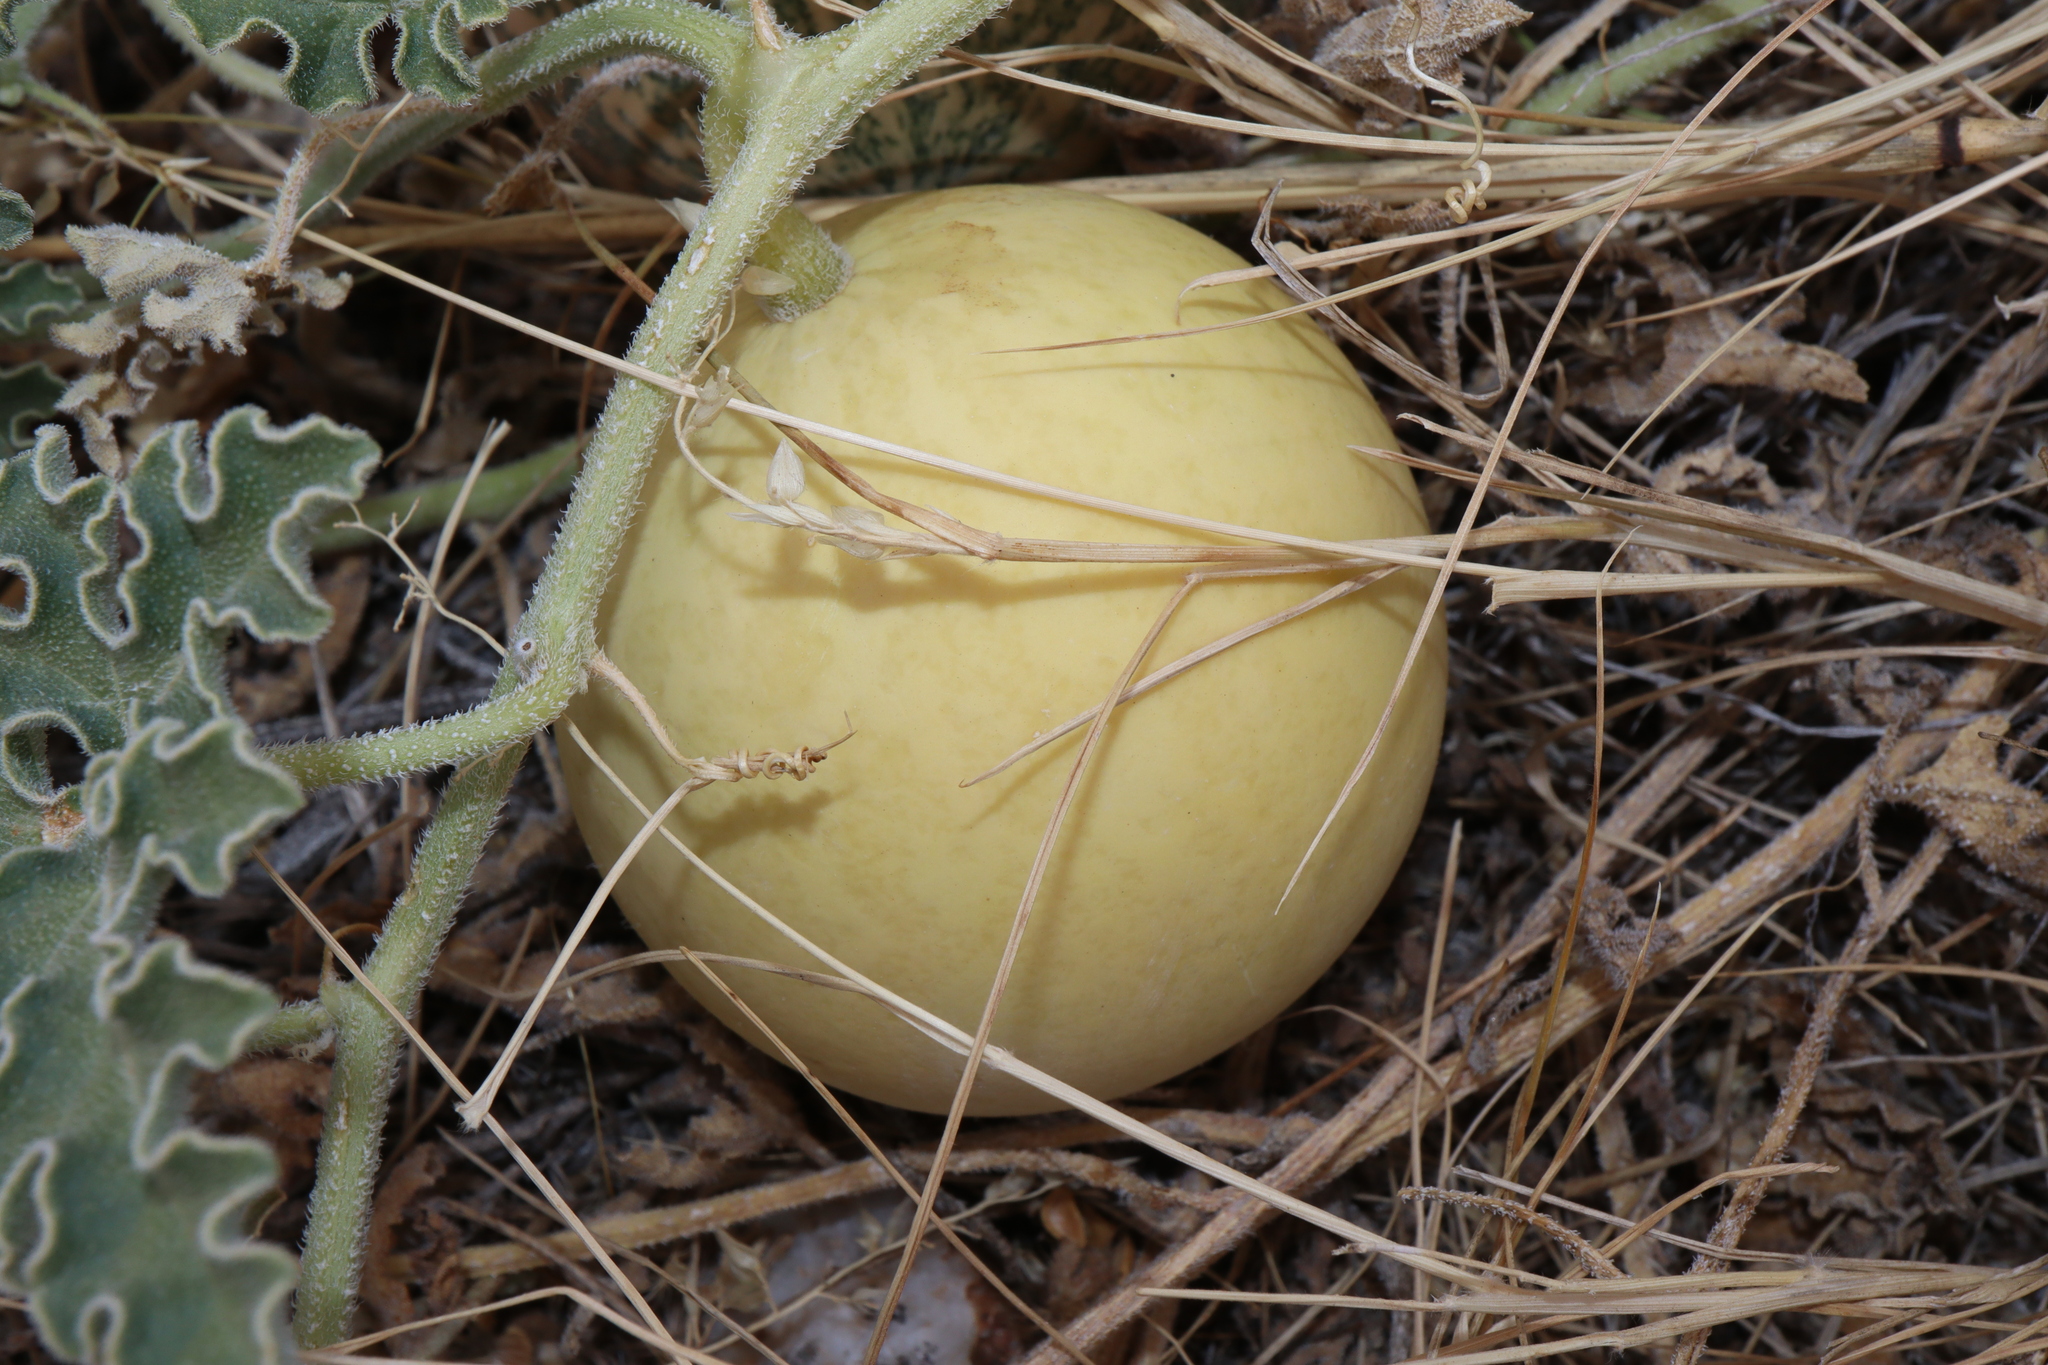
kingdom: Plantae
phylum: Tracheophyta
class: Magnoliopsida
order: Cucurbitales
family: Cucurbitaceae
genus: Citrullus
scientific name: Citrullus colocynthis
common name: Colocynth
